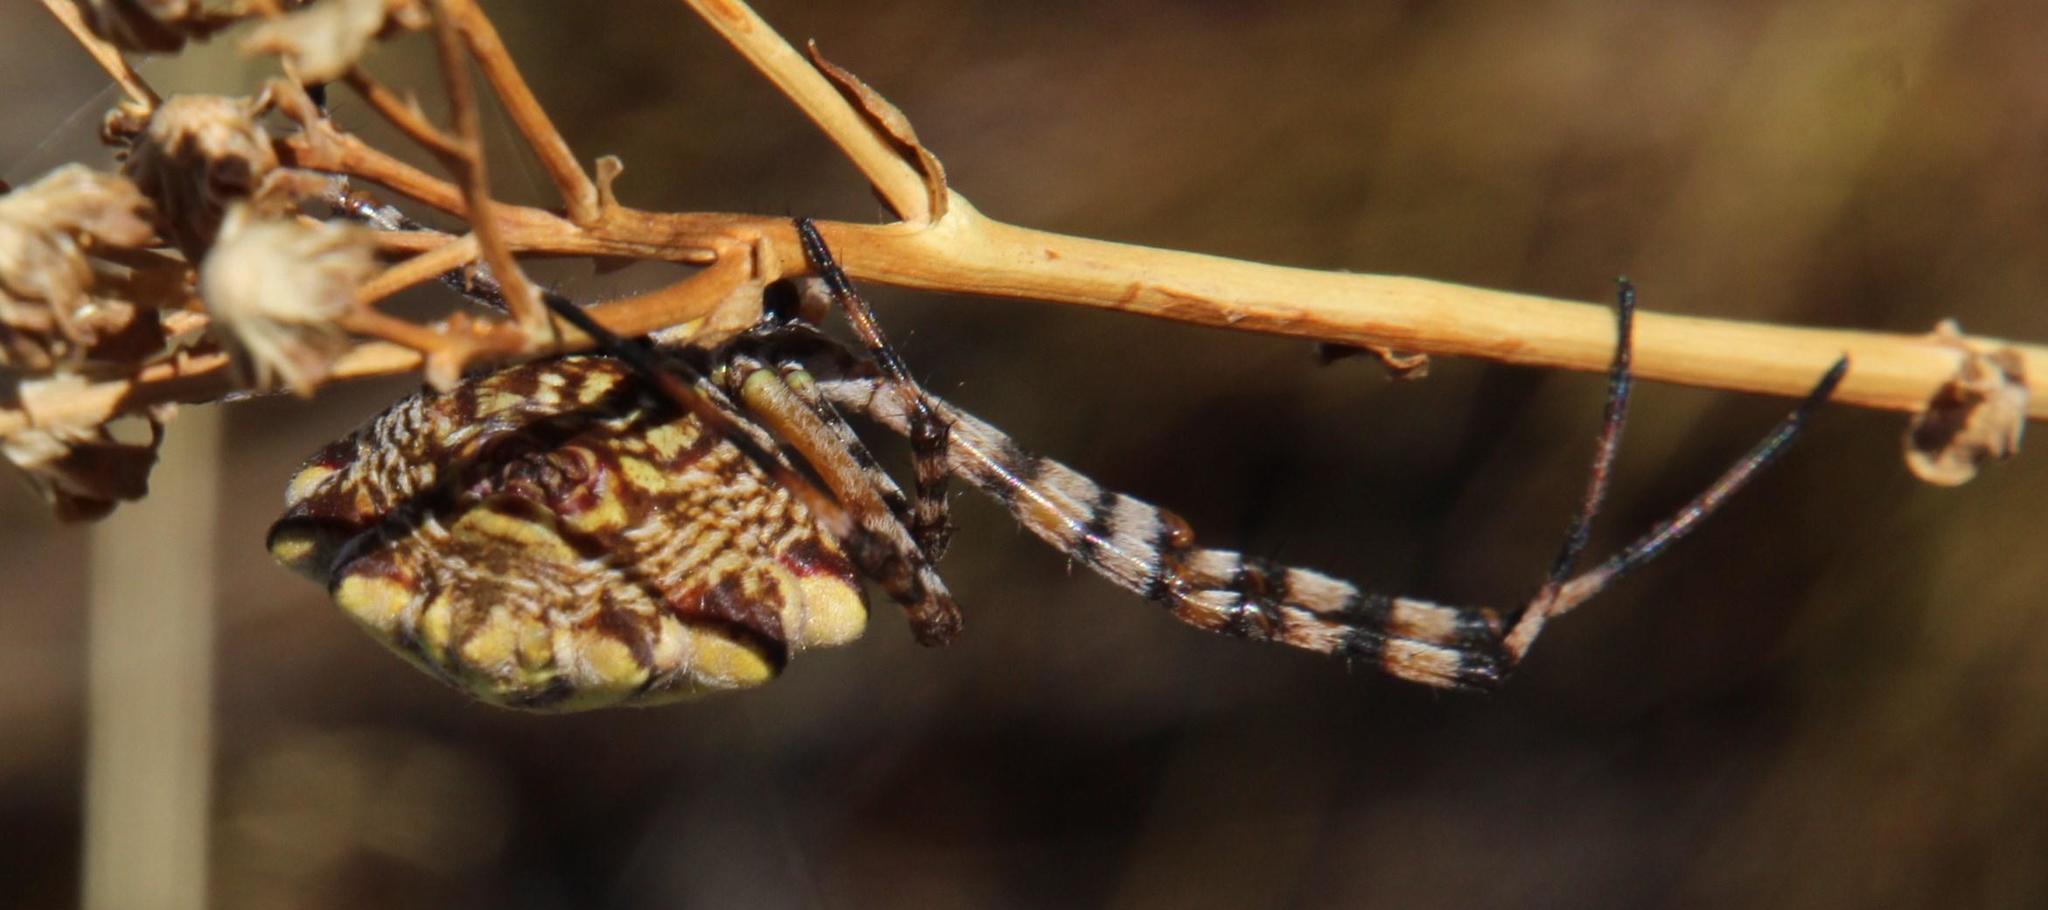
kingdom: Animalia
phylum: Arthropoda
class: Arachnida
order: Araneae
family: Araneidae
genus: Argiope
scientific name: Argiope australis
